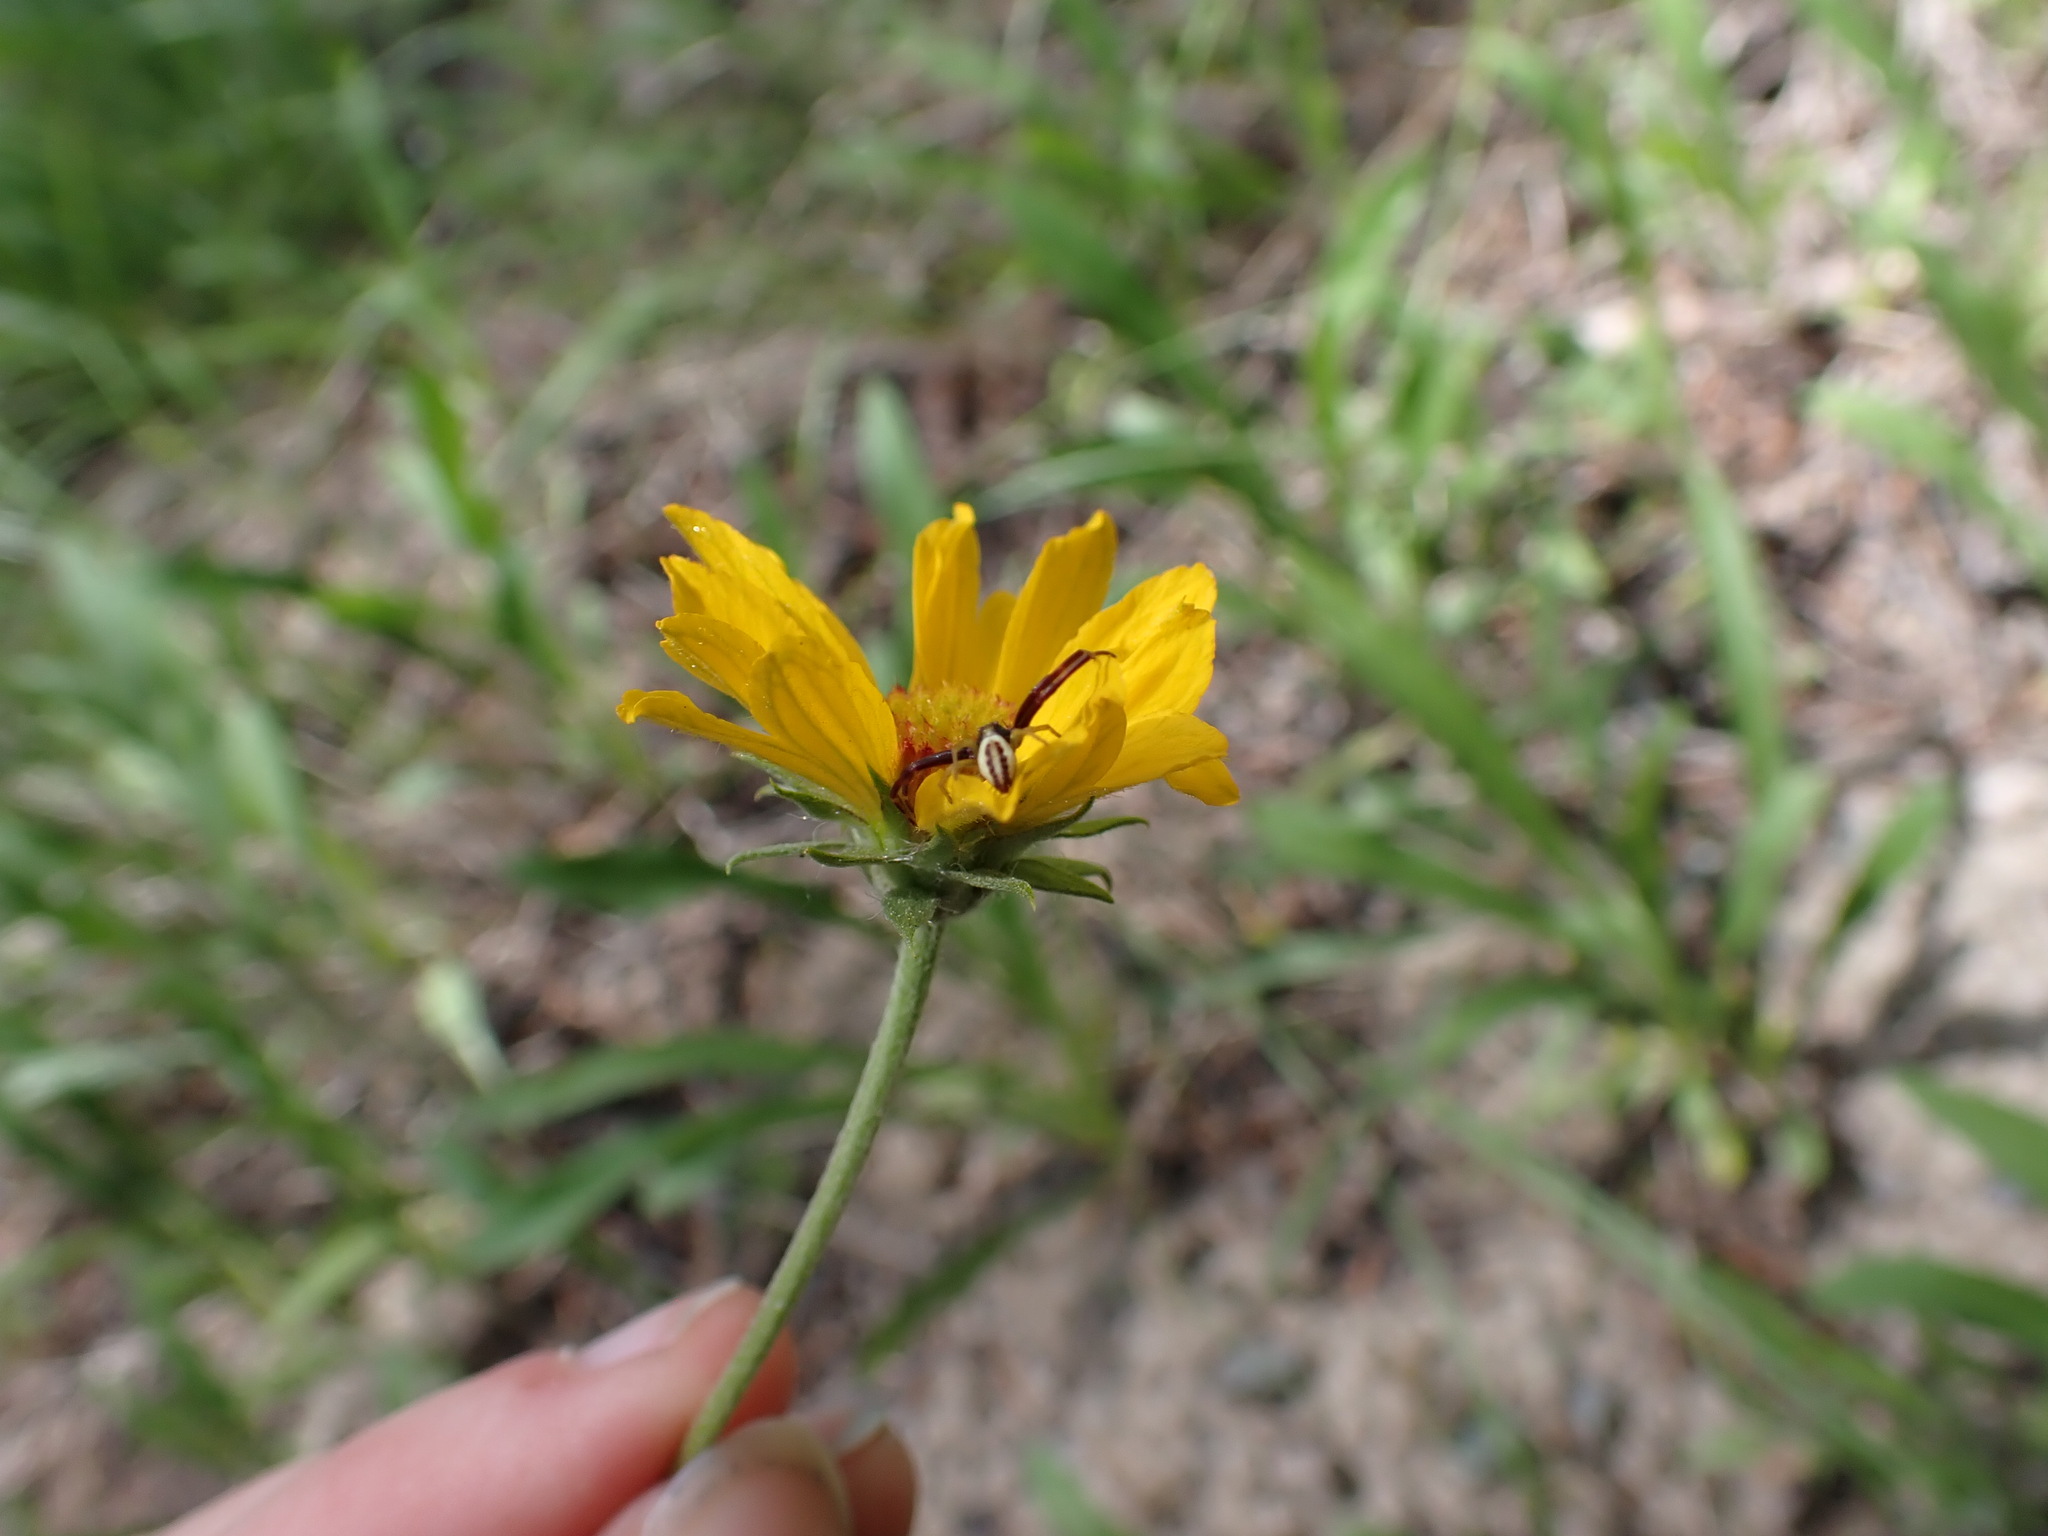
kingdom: Animalia
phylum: Arthropoda
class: Arachnida
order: Araneae
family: Thomisidae
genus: Misumena
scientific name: Misumena vatia
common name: Goldenrod crab spider
